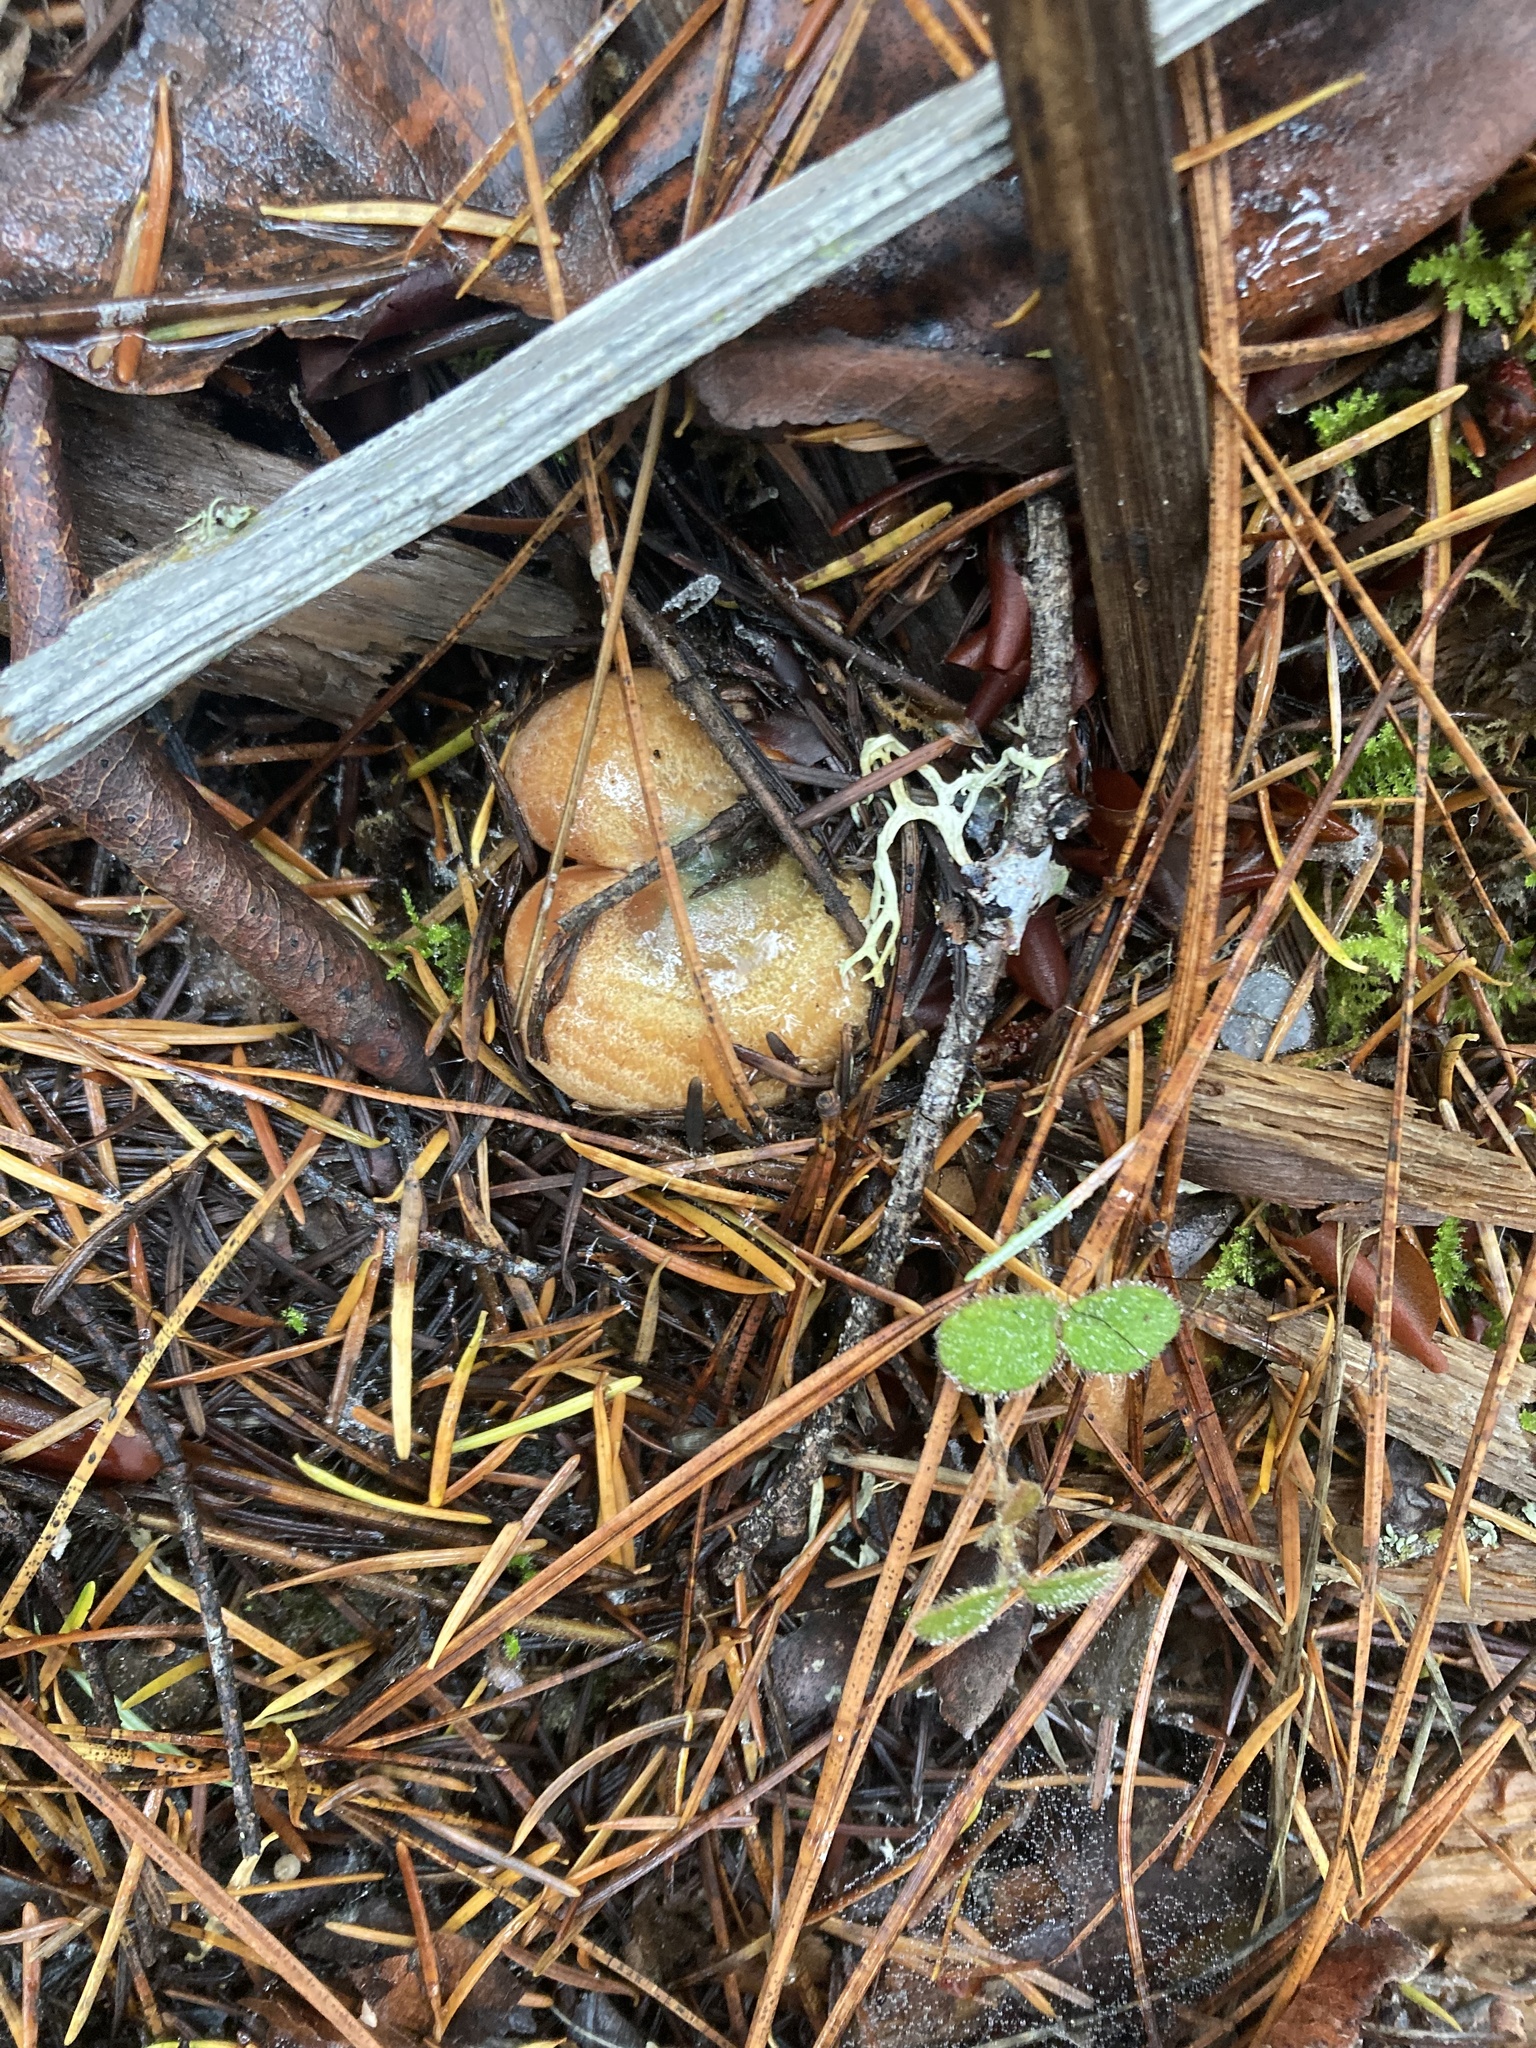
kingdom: Fungi
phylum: Basidiomycota
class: Agaricomycetes
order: Russulales
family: Russulaceae
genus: Lactarius
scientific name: Lactarius rubrilacteus
